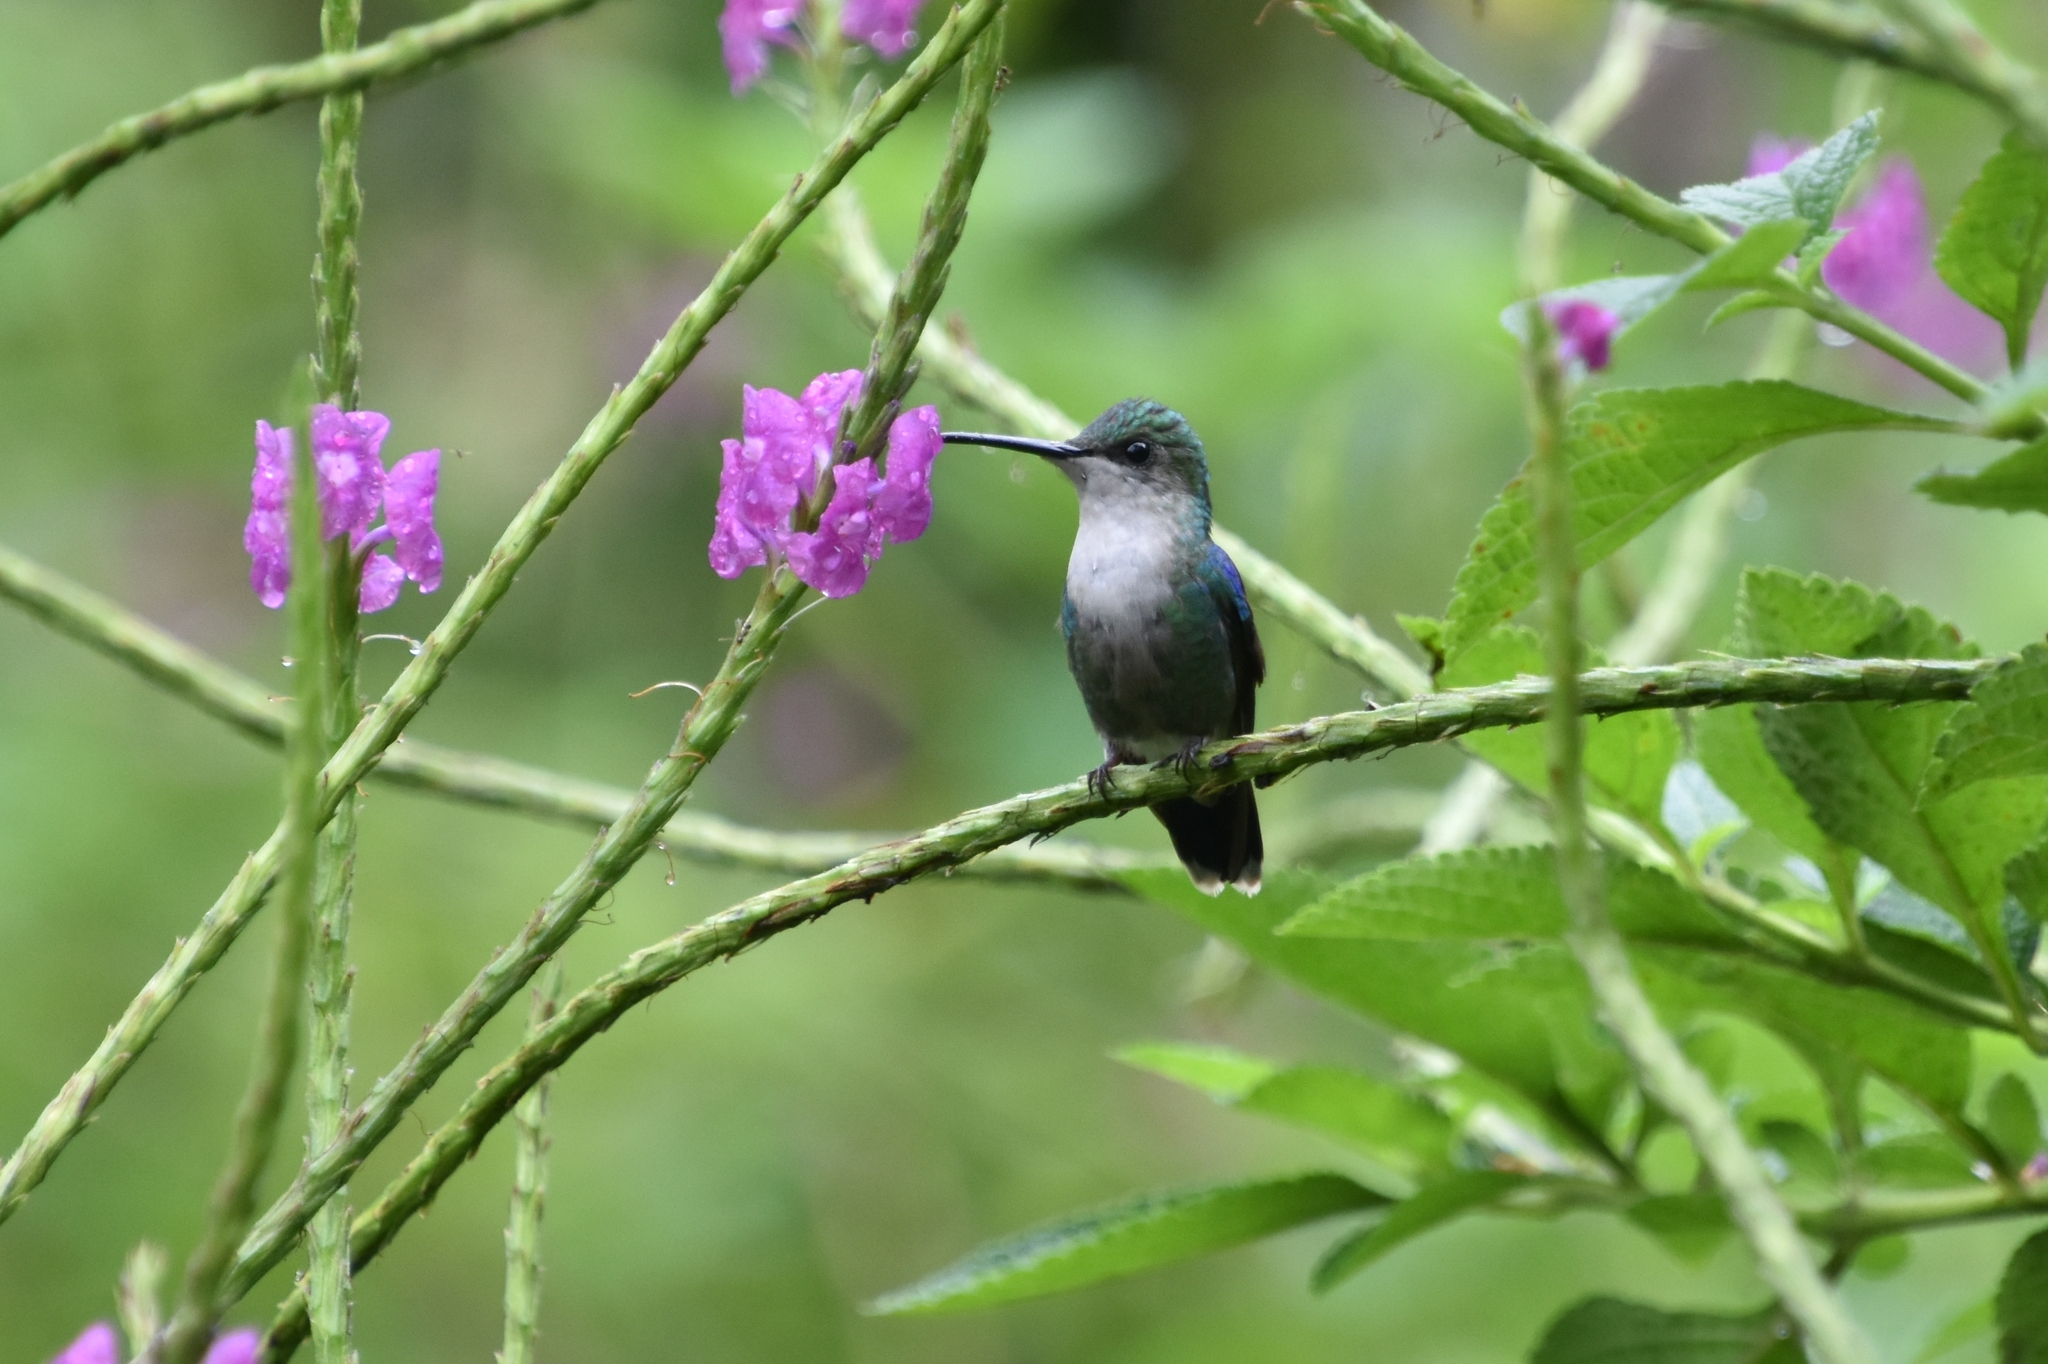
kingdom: Animalia
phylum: Chordata
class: Aves
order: Apodiformes
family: Trochilidae
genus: Thalurania
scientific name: Thalurania colombica
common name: Crowned woodnymph
